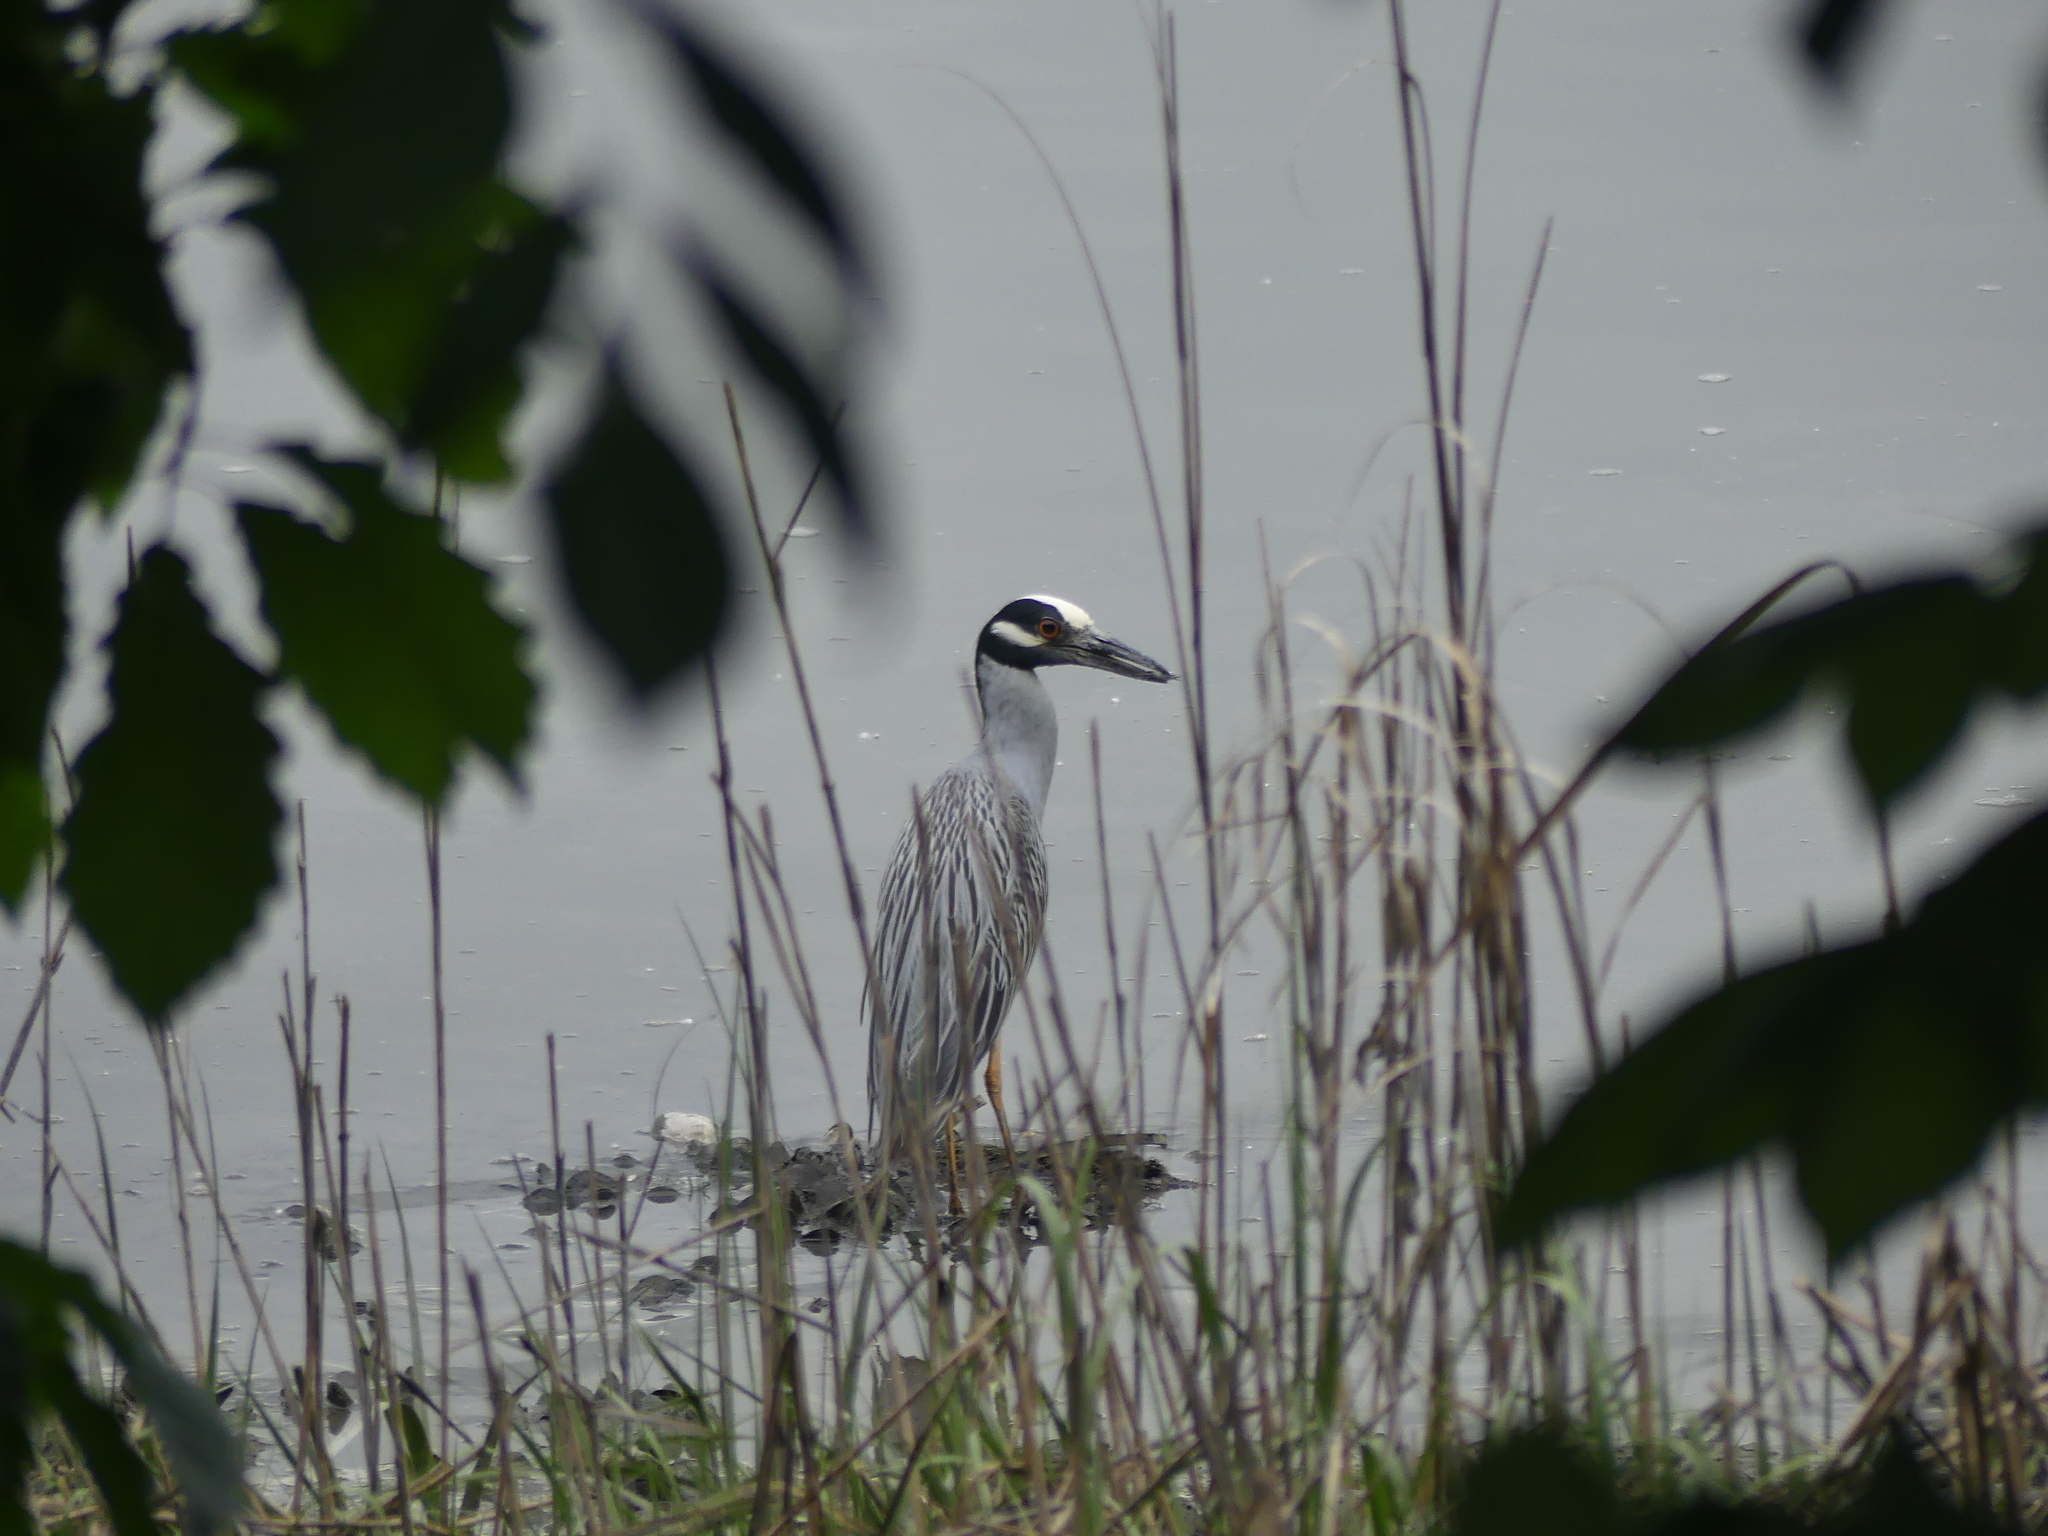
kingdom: Animalia
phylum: Chordata
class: Aves
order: Pelecaniformes
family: Ardeidae
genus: Nyctanassa
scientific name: Nyctanassa violacea
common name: Yellow-crowned night heron
